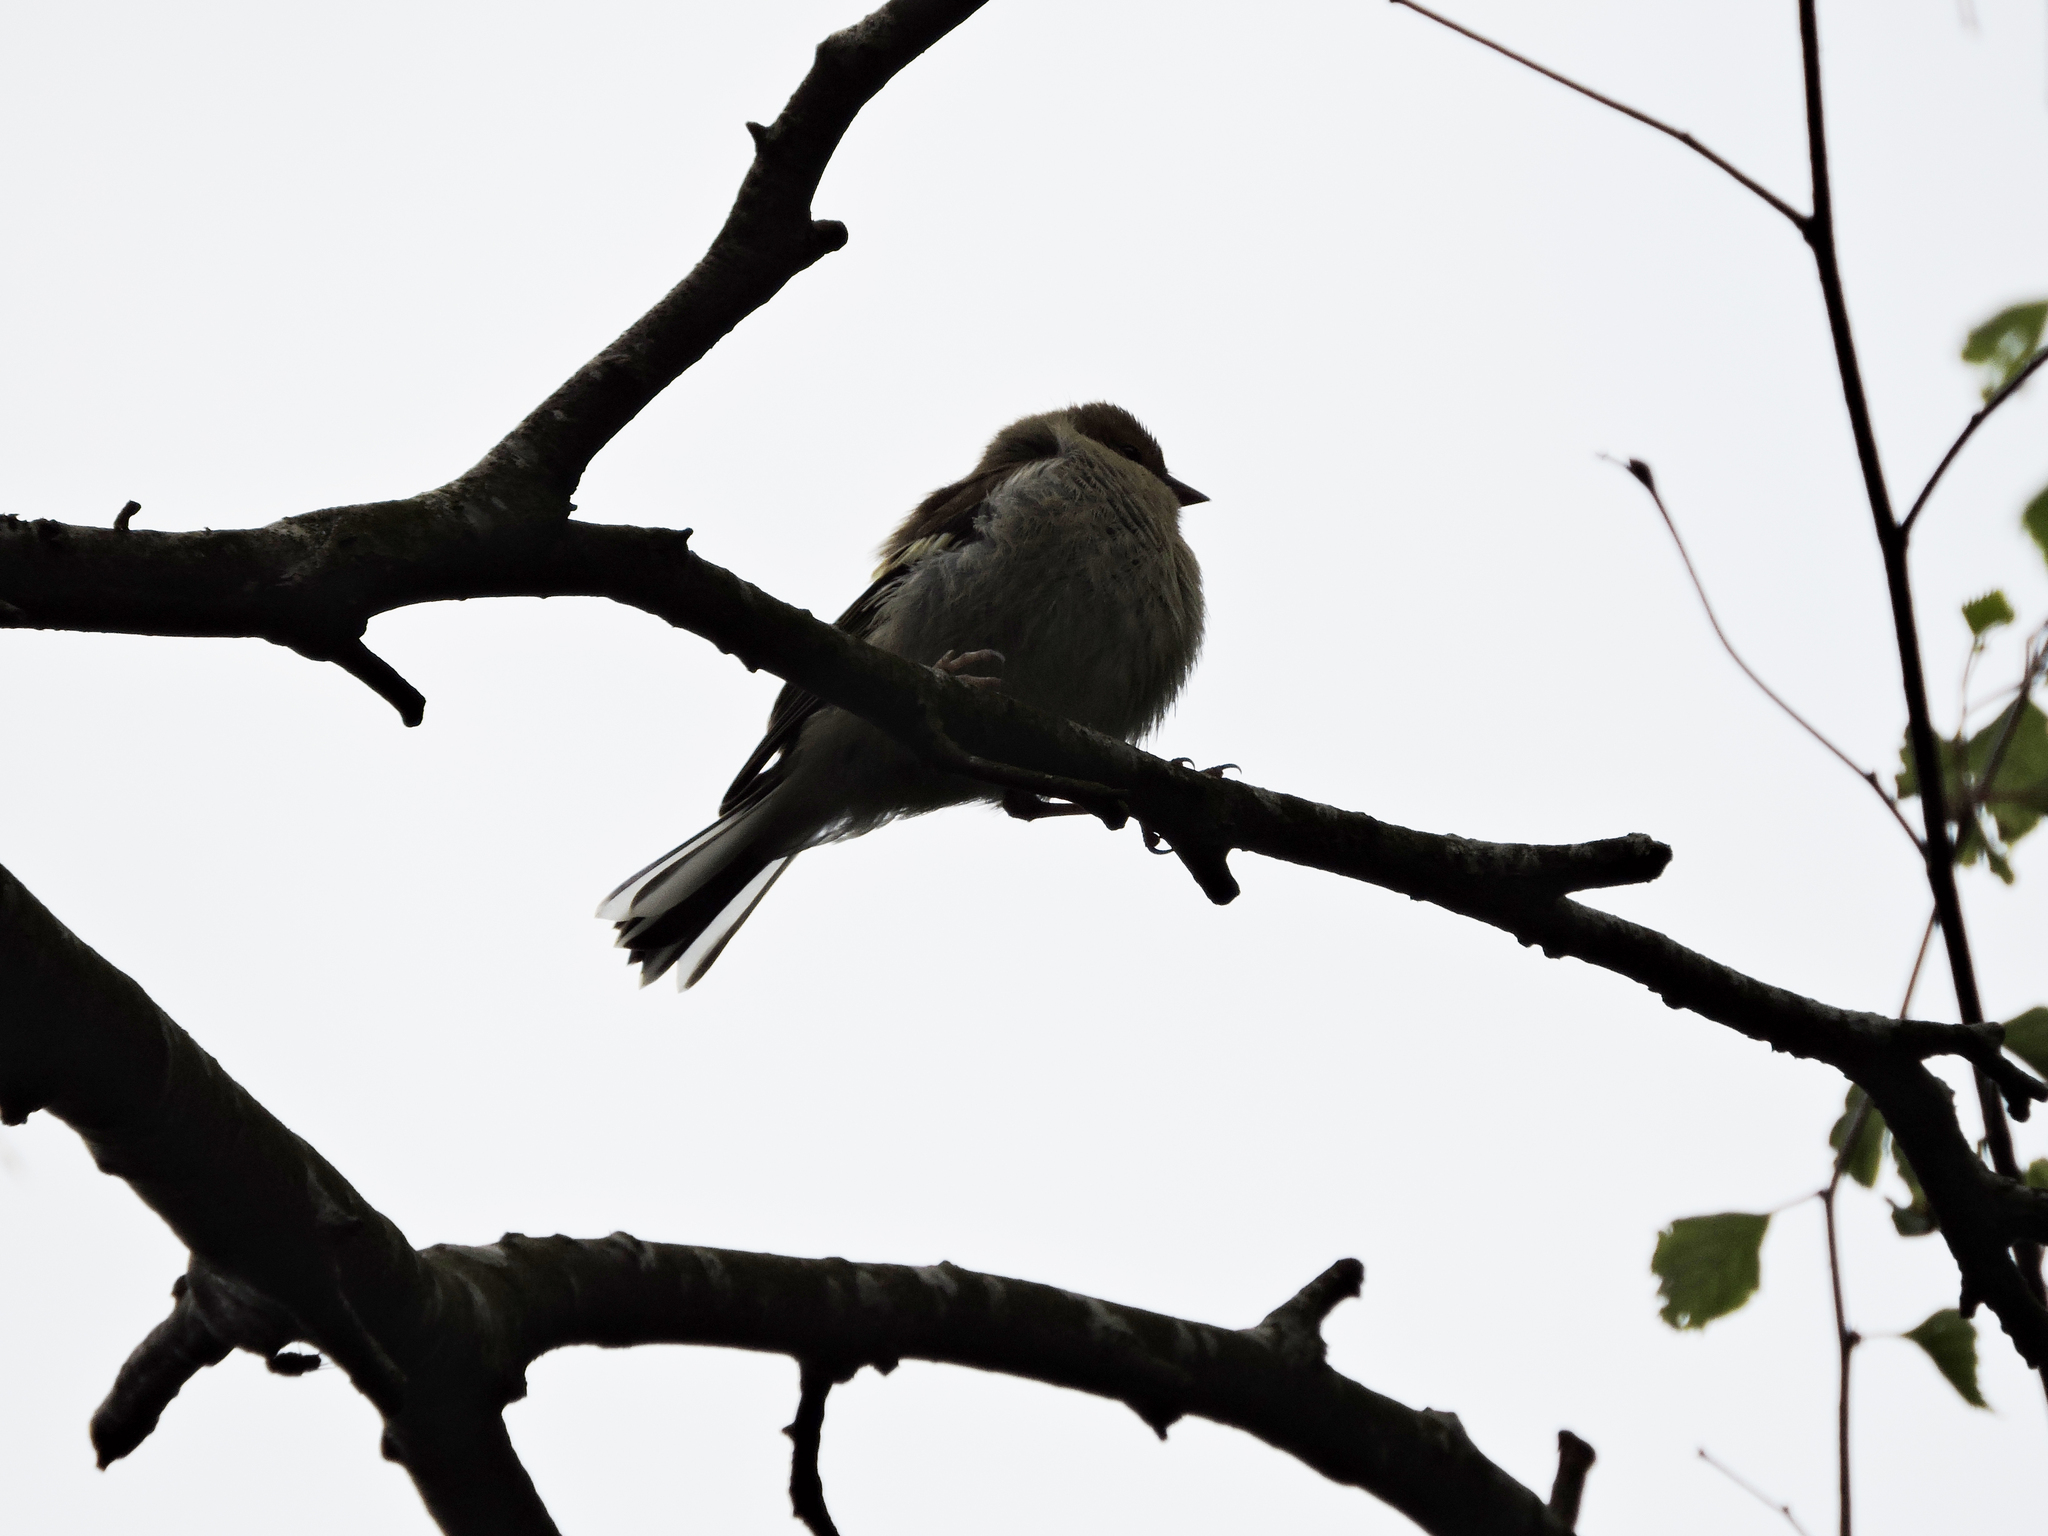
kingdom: Animalia
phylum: Chordata
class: Aves
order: Passeriformes
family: Muscicapidae
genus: Ficedula
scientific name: Ficedula hypoleuca
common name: European pied flycatcher
